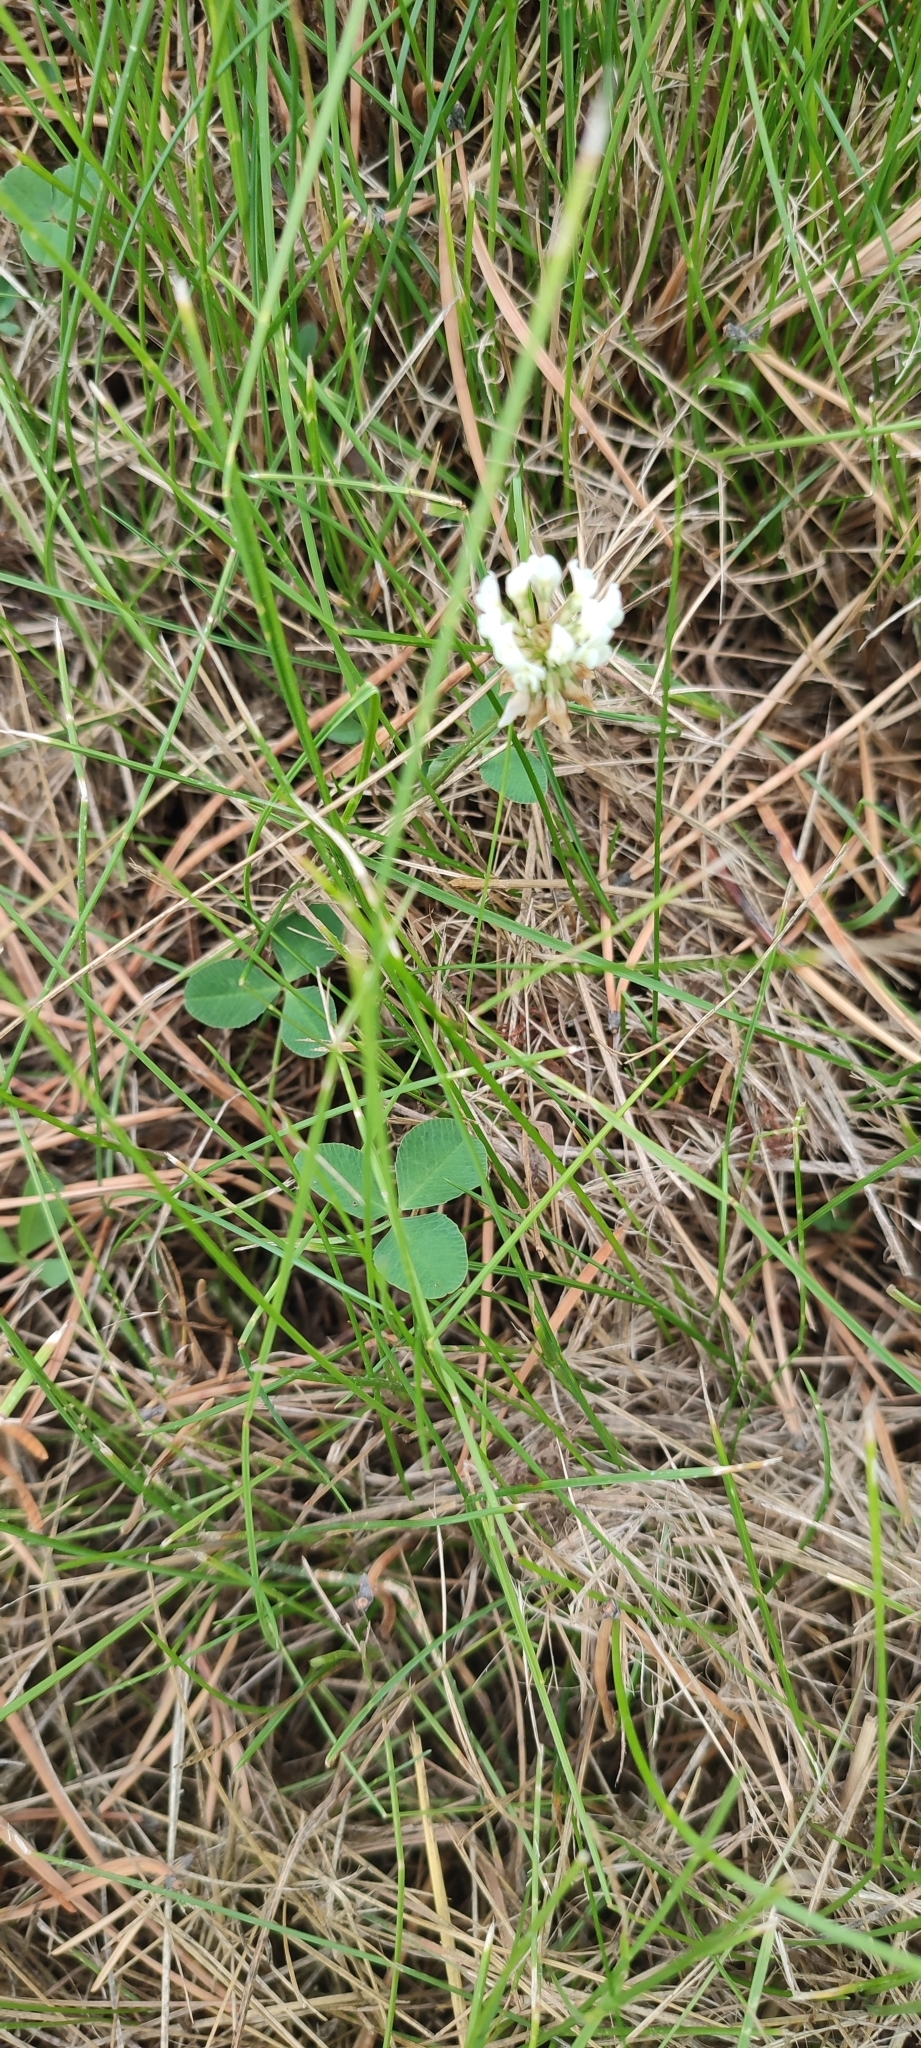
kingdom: Plantae
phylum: Tracheophyta
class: Magnoliopsida
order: Fabales
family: Fabaceae
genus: Trifolium
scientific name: Trifolium repens
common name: White clover
